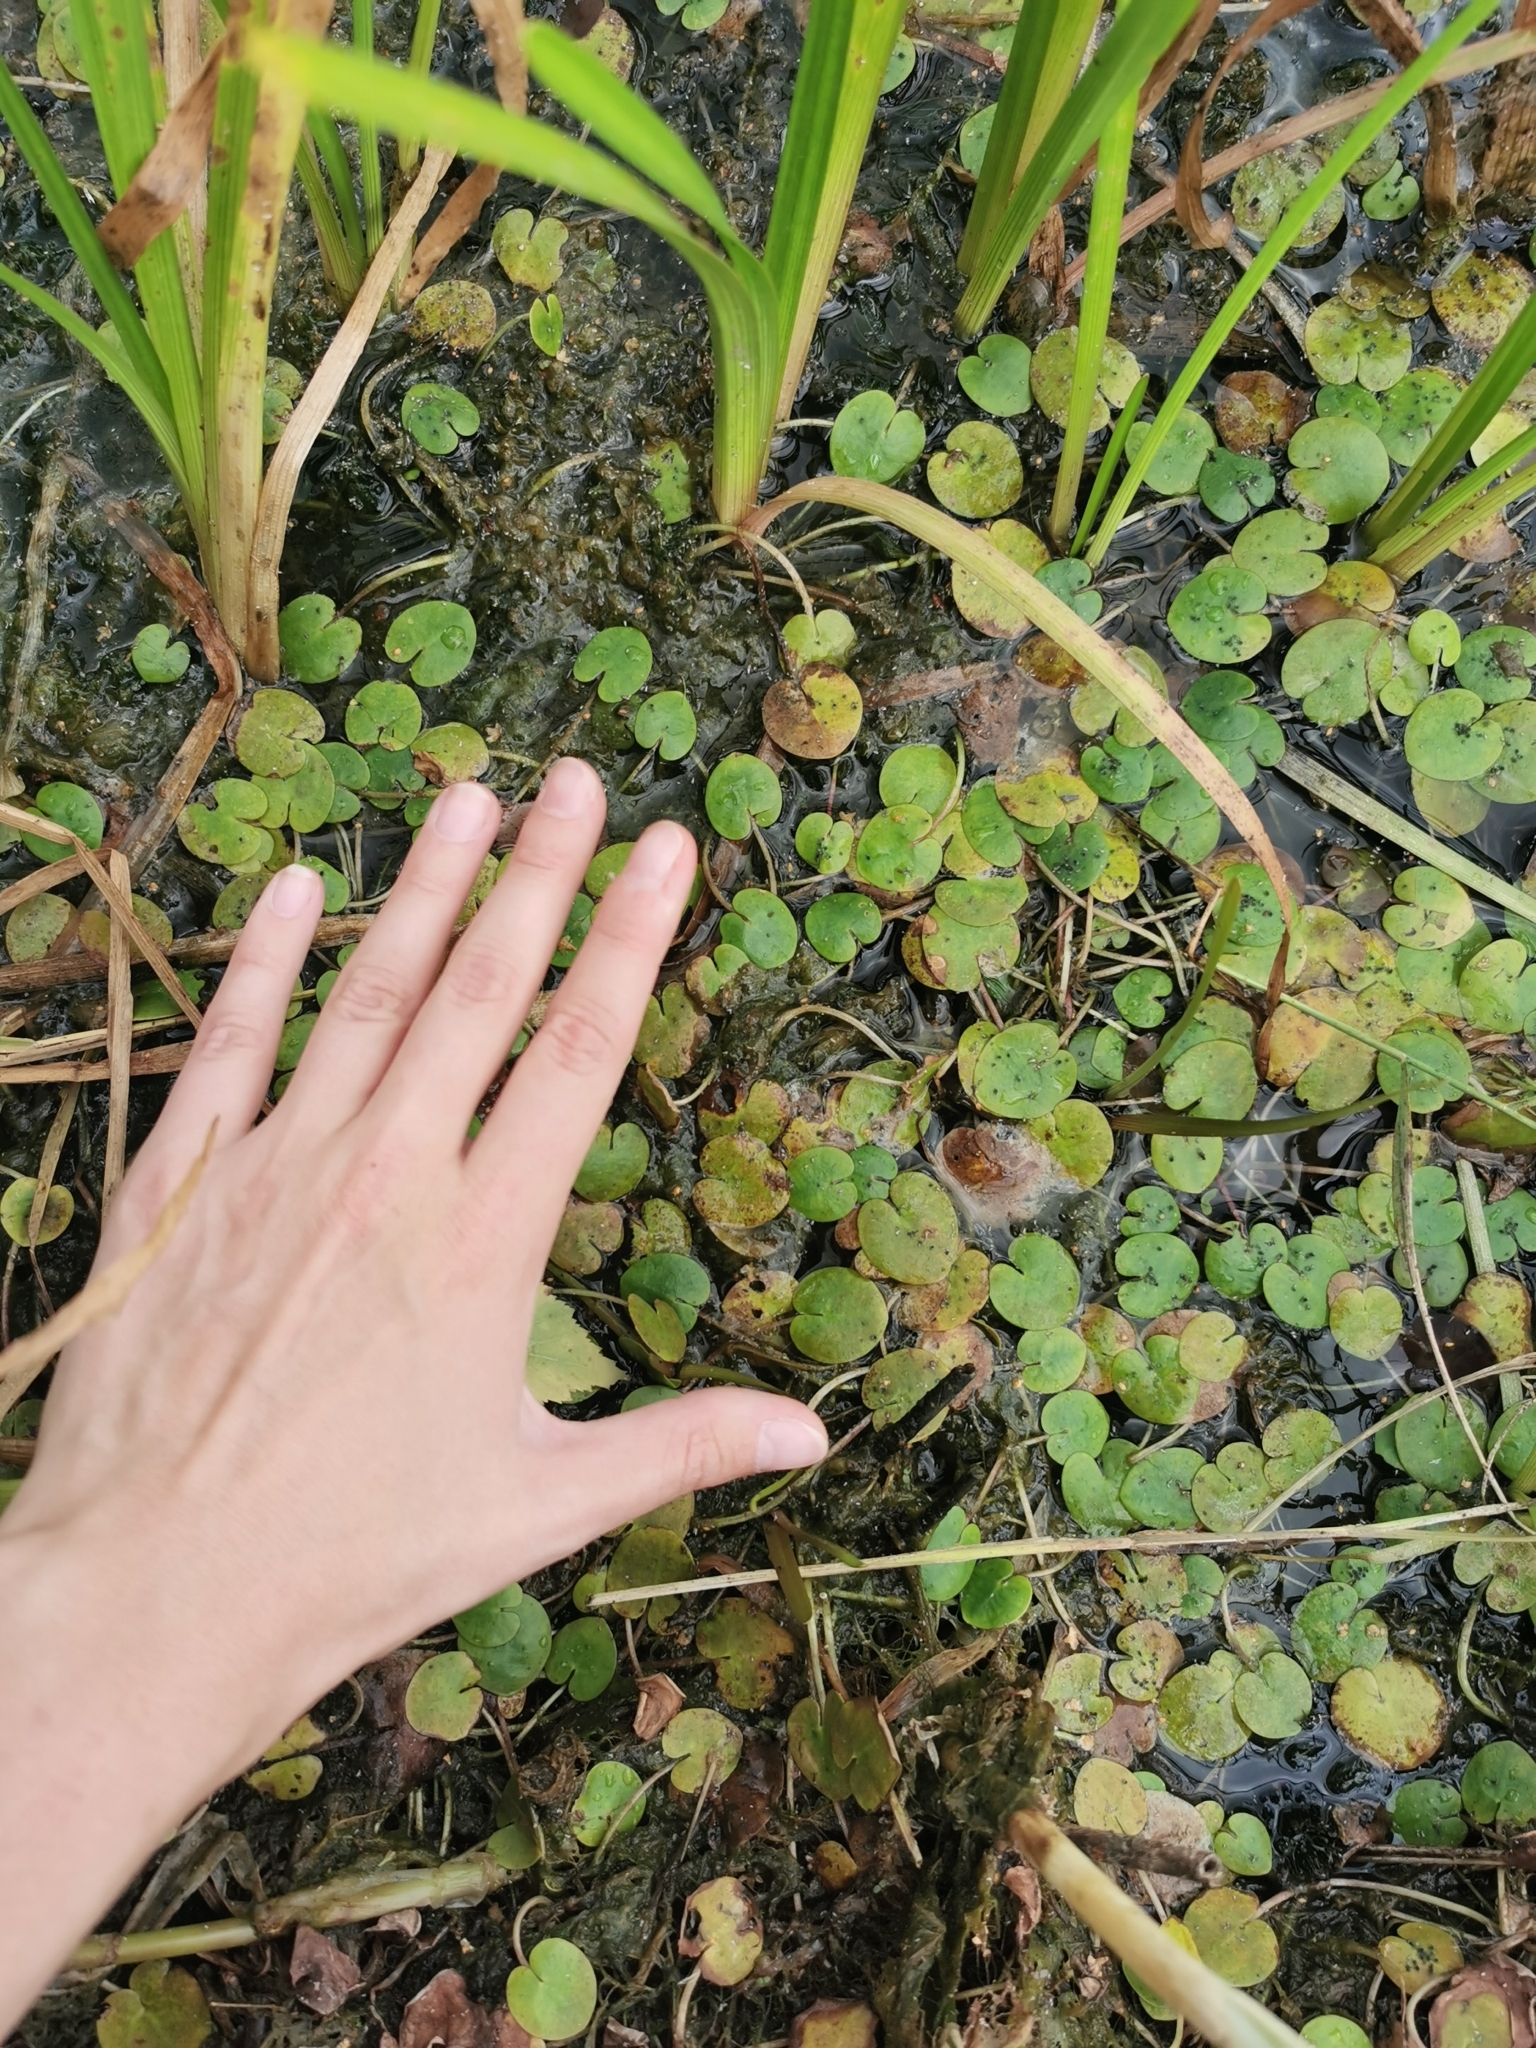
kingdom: Plantae
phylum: Tracheophyta
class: Liliopsida
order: Alismatales
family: Hydrocharitaceae
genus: Hydrocharis
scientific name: Hydrocharis morsus-ranae
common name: Frogbit
